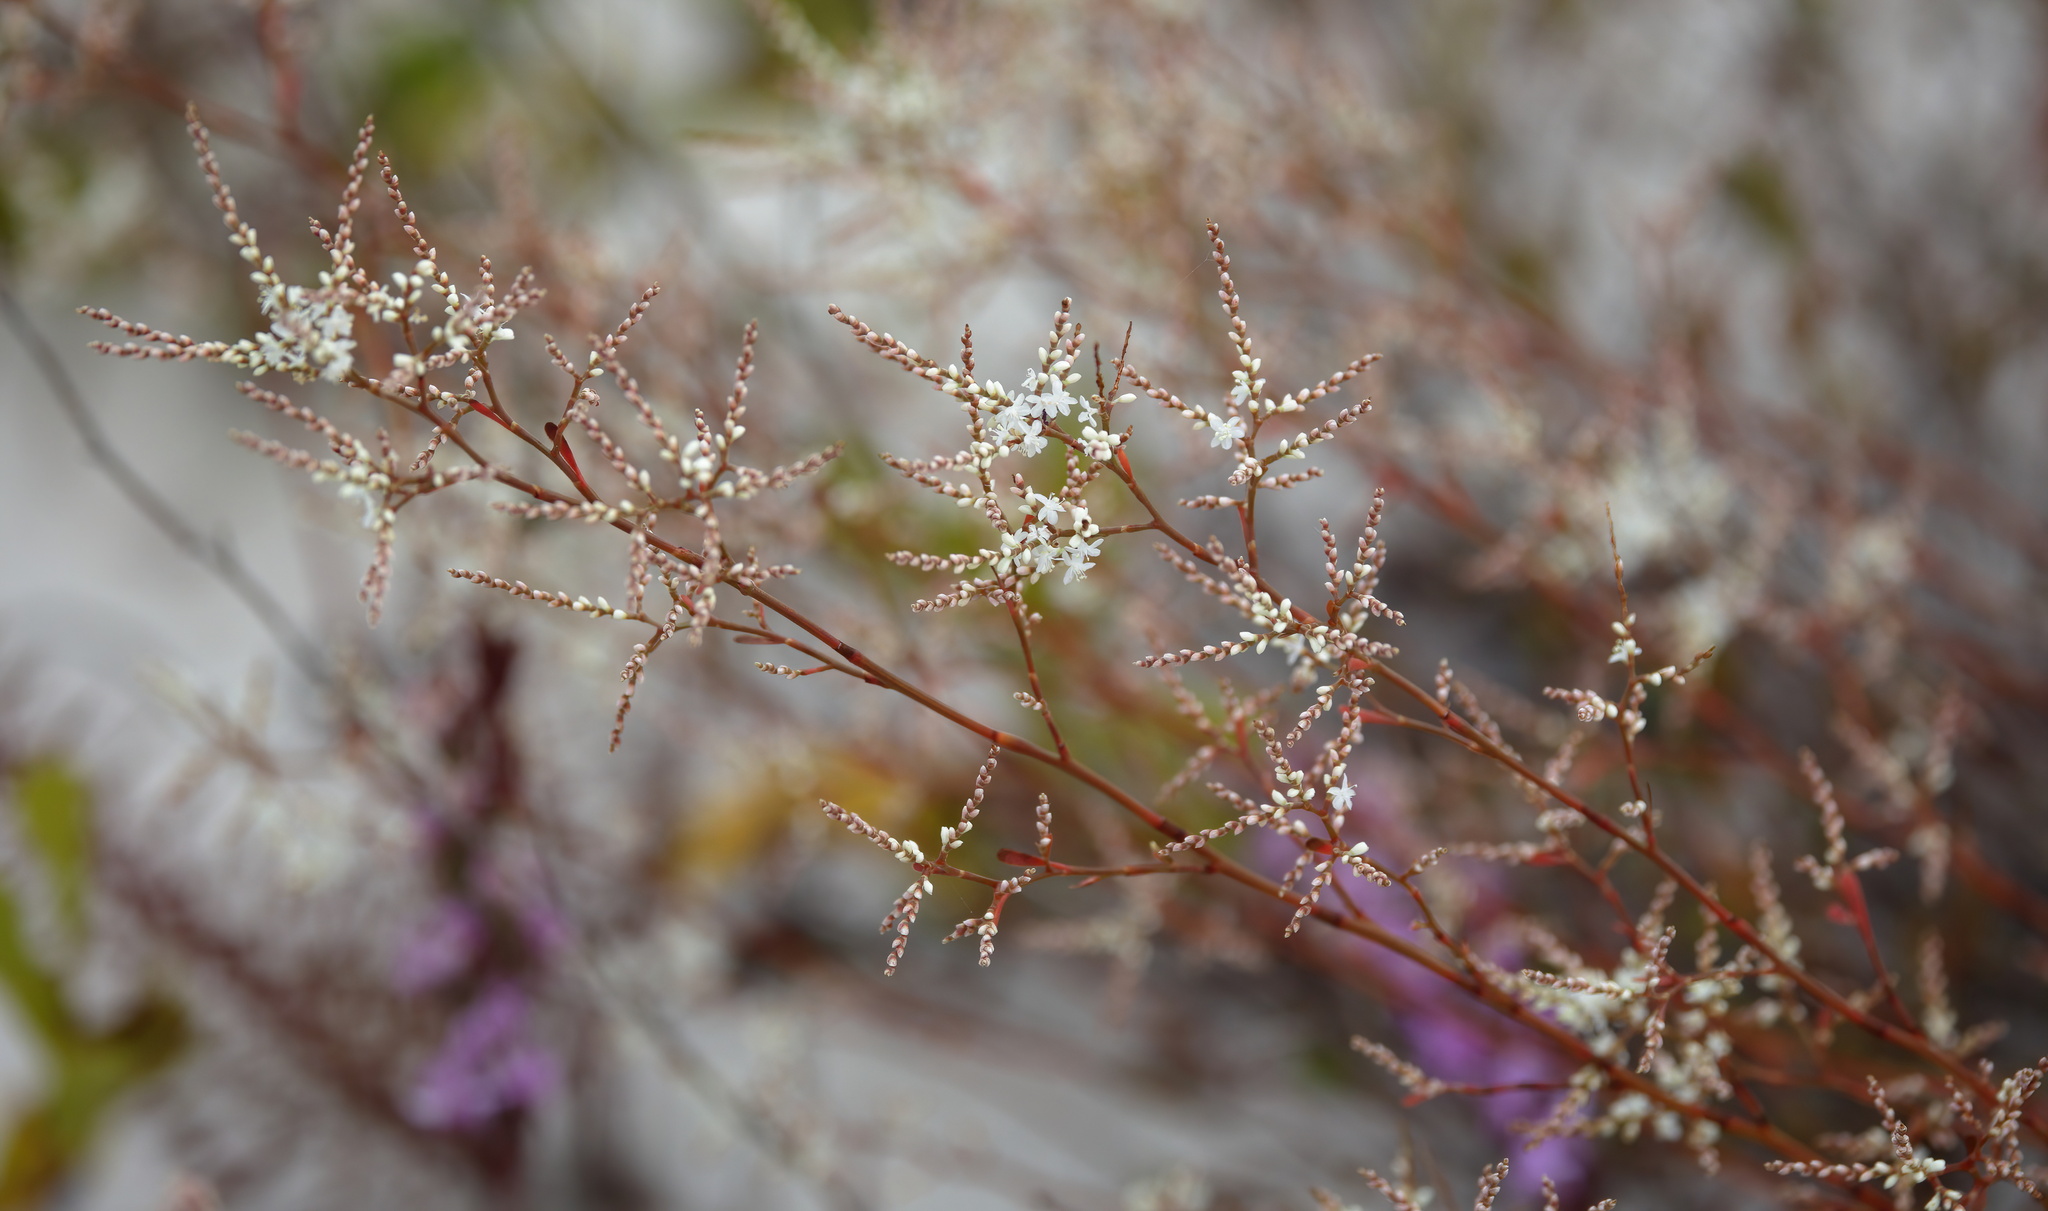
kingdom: Plantae
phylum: Tracheophyta
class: Magnoliopsida
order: Caryophyllales
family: Polygonaceae
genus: Polygonella
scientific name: Polygonella polygama
